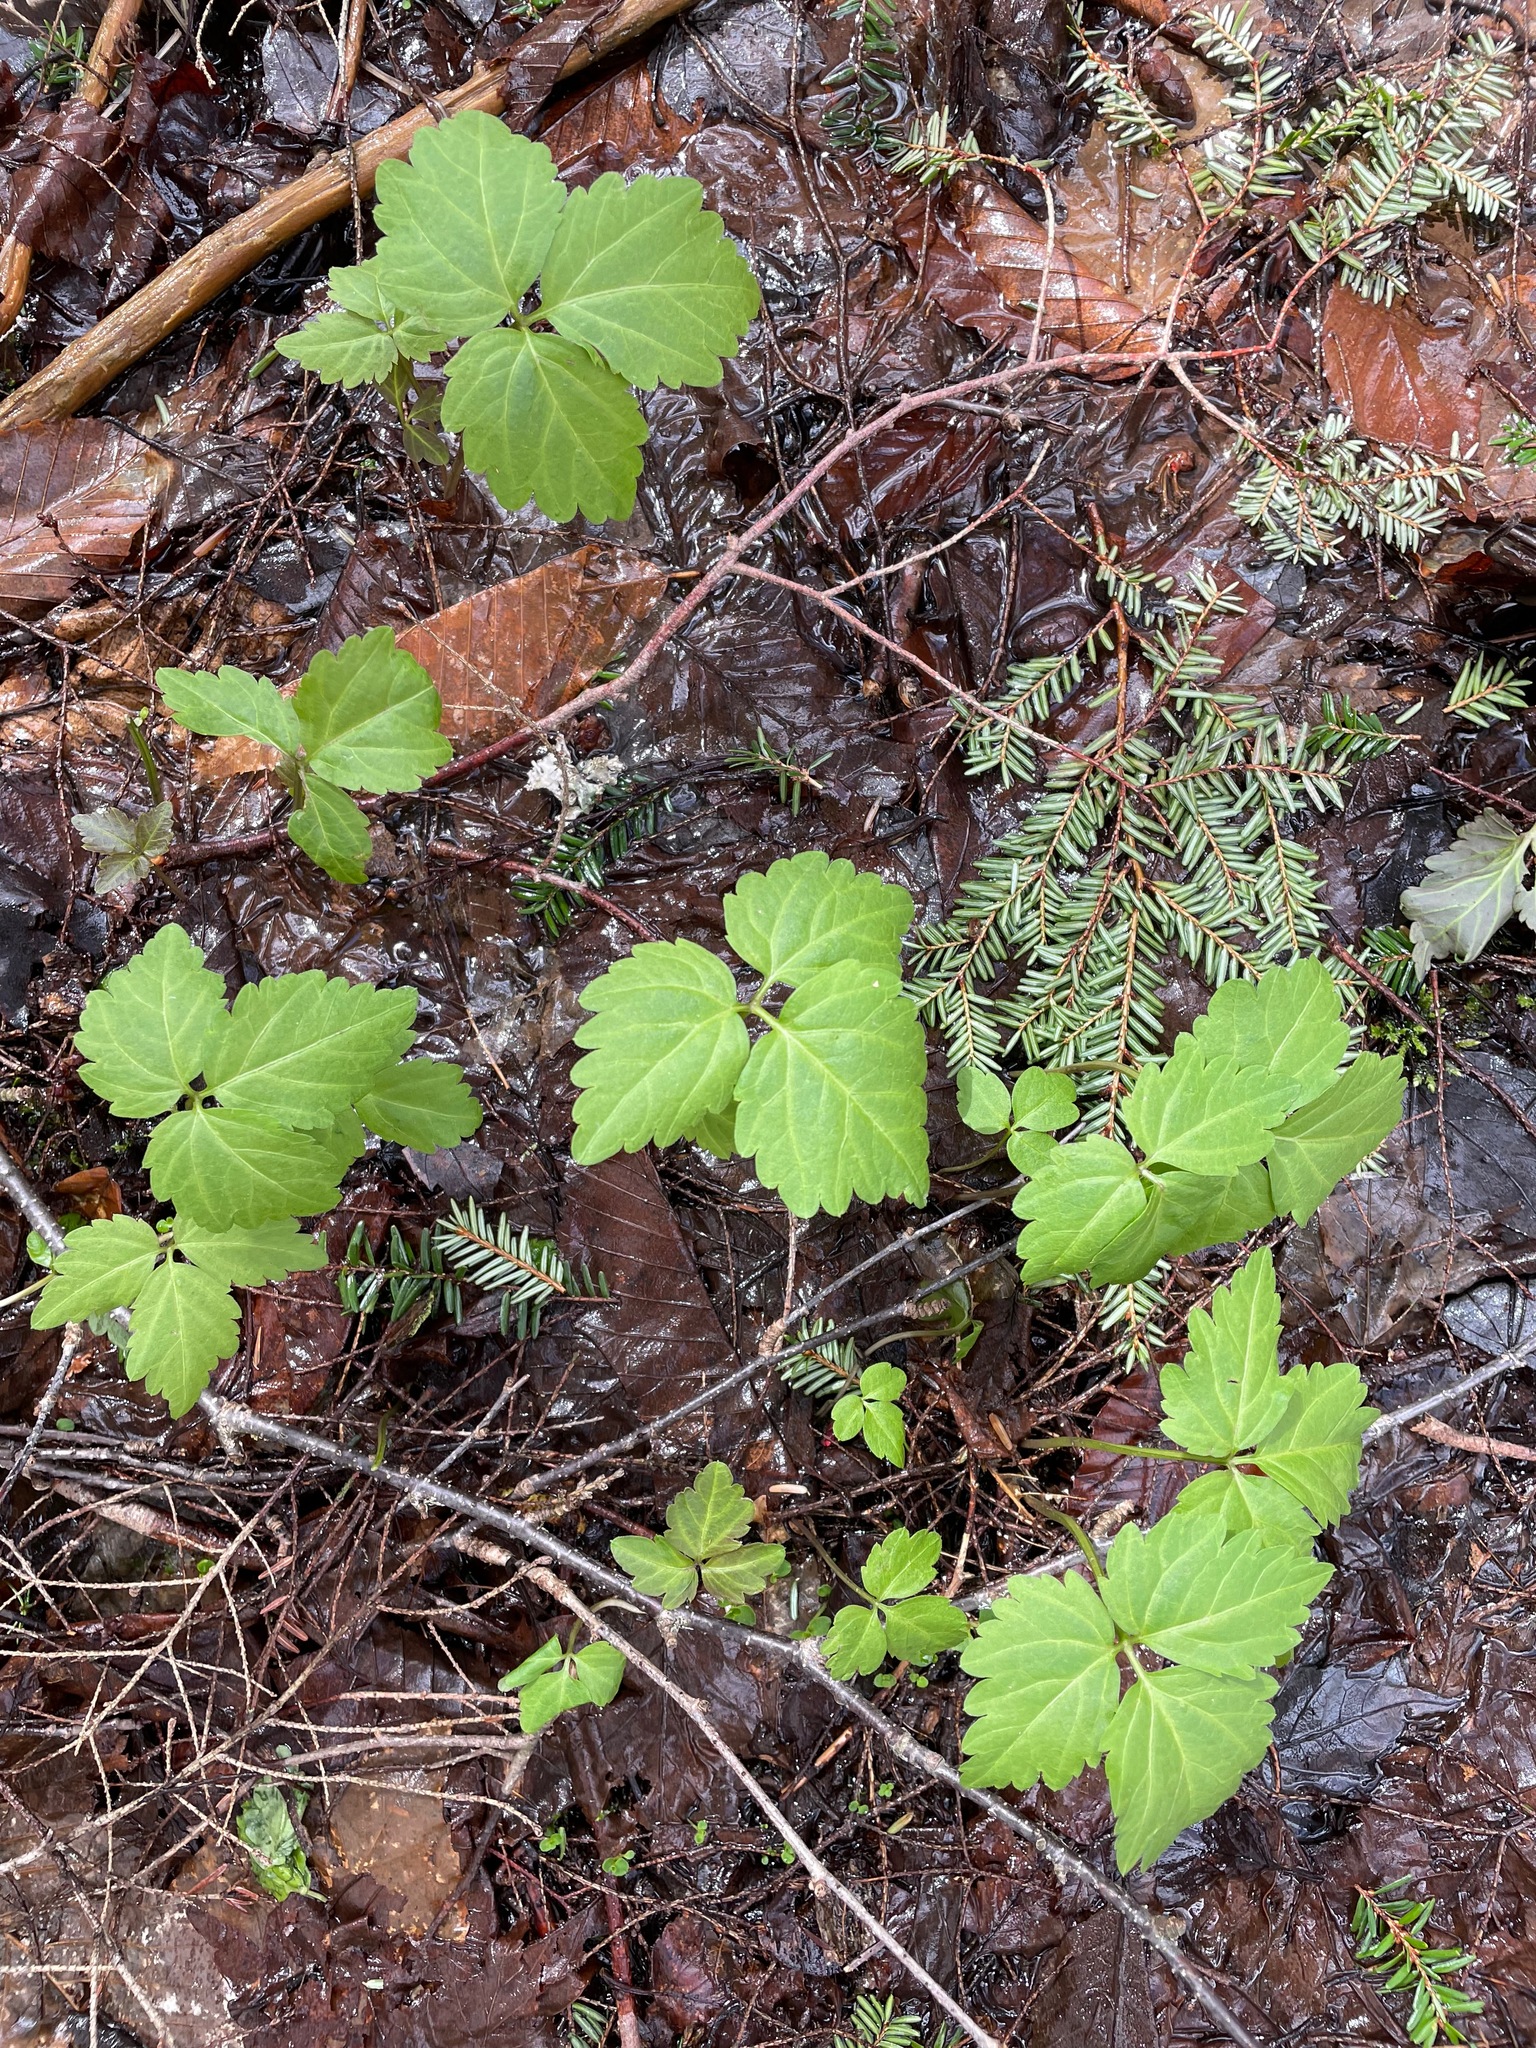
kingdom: Plantae
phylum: Tracheophyta
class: Magnoliopsida
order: Brassicales
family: Brassicaceae
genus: Cardamine
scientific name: Cardamine diphylla
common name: Broad-leaved toothwort
